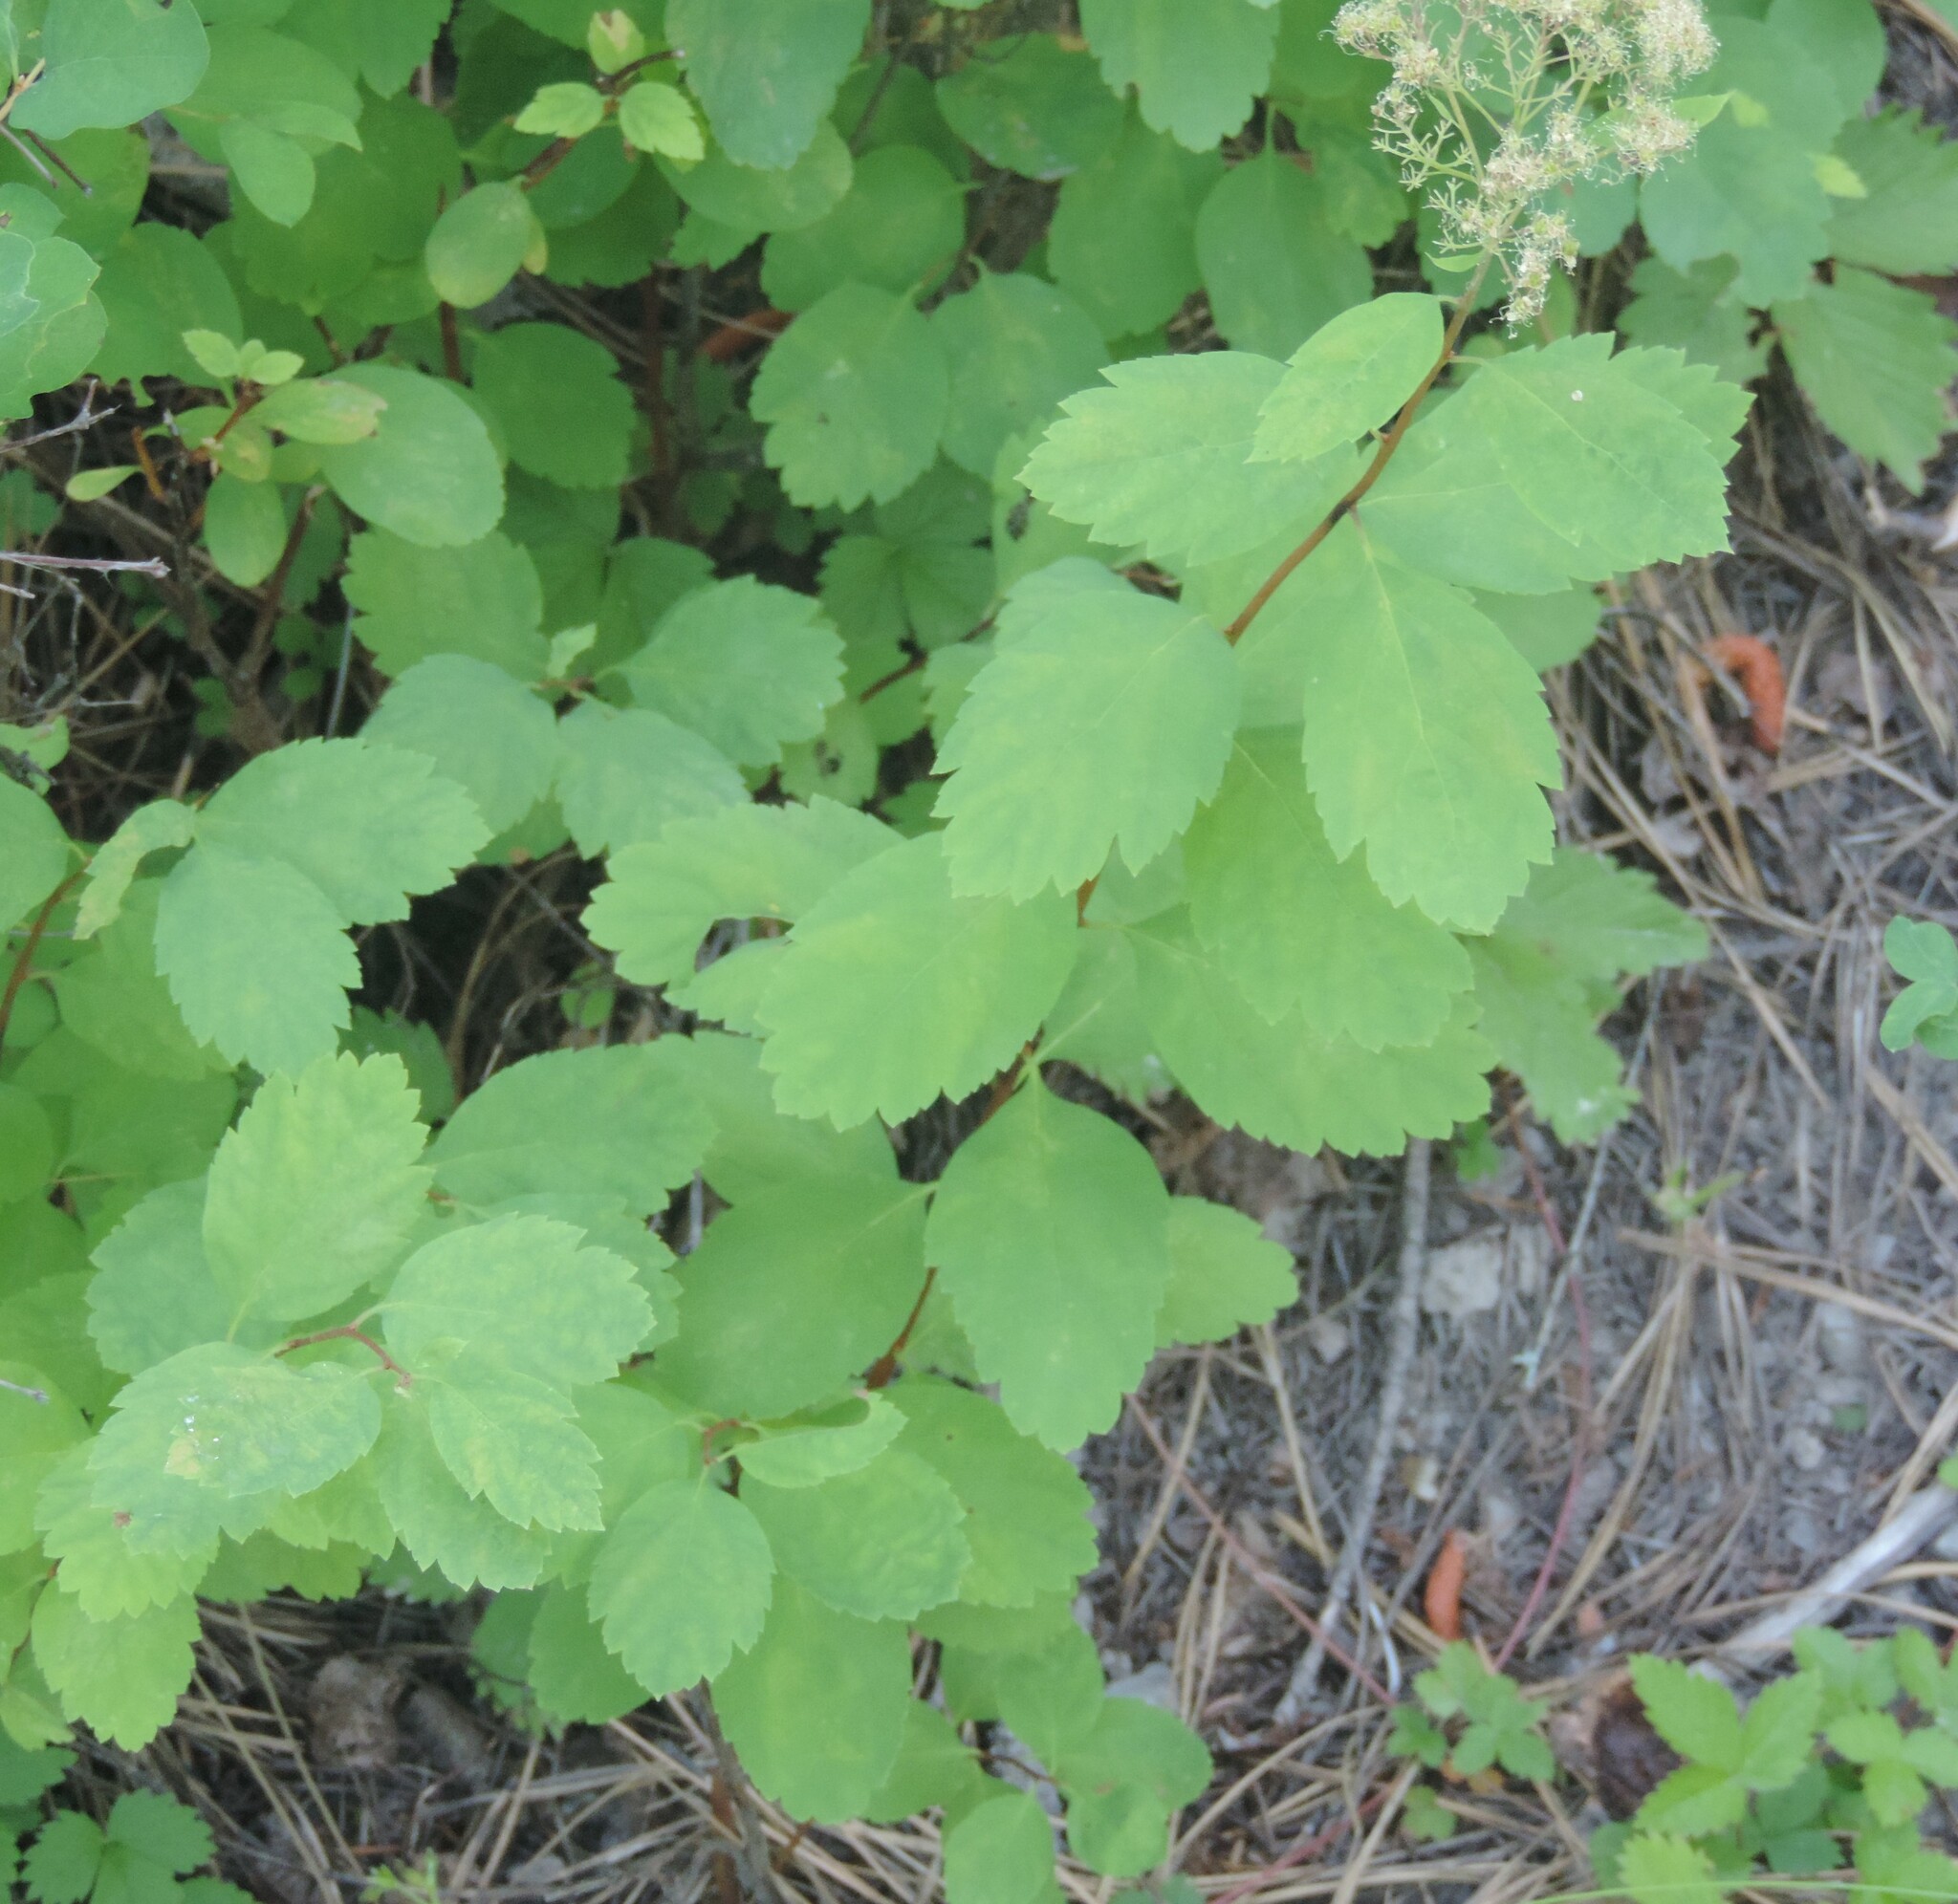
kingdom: Plantae
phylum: Tracheophyta
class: Magnoliopsida
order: Rosales
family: Rosaceae
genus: Spiraea
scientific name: Spiraea lucida
